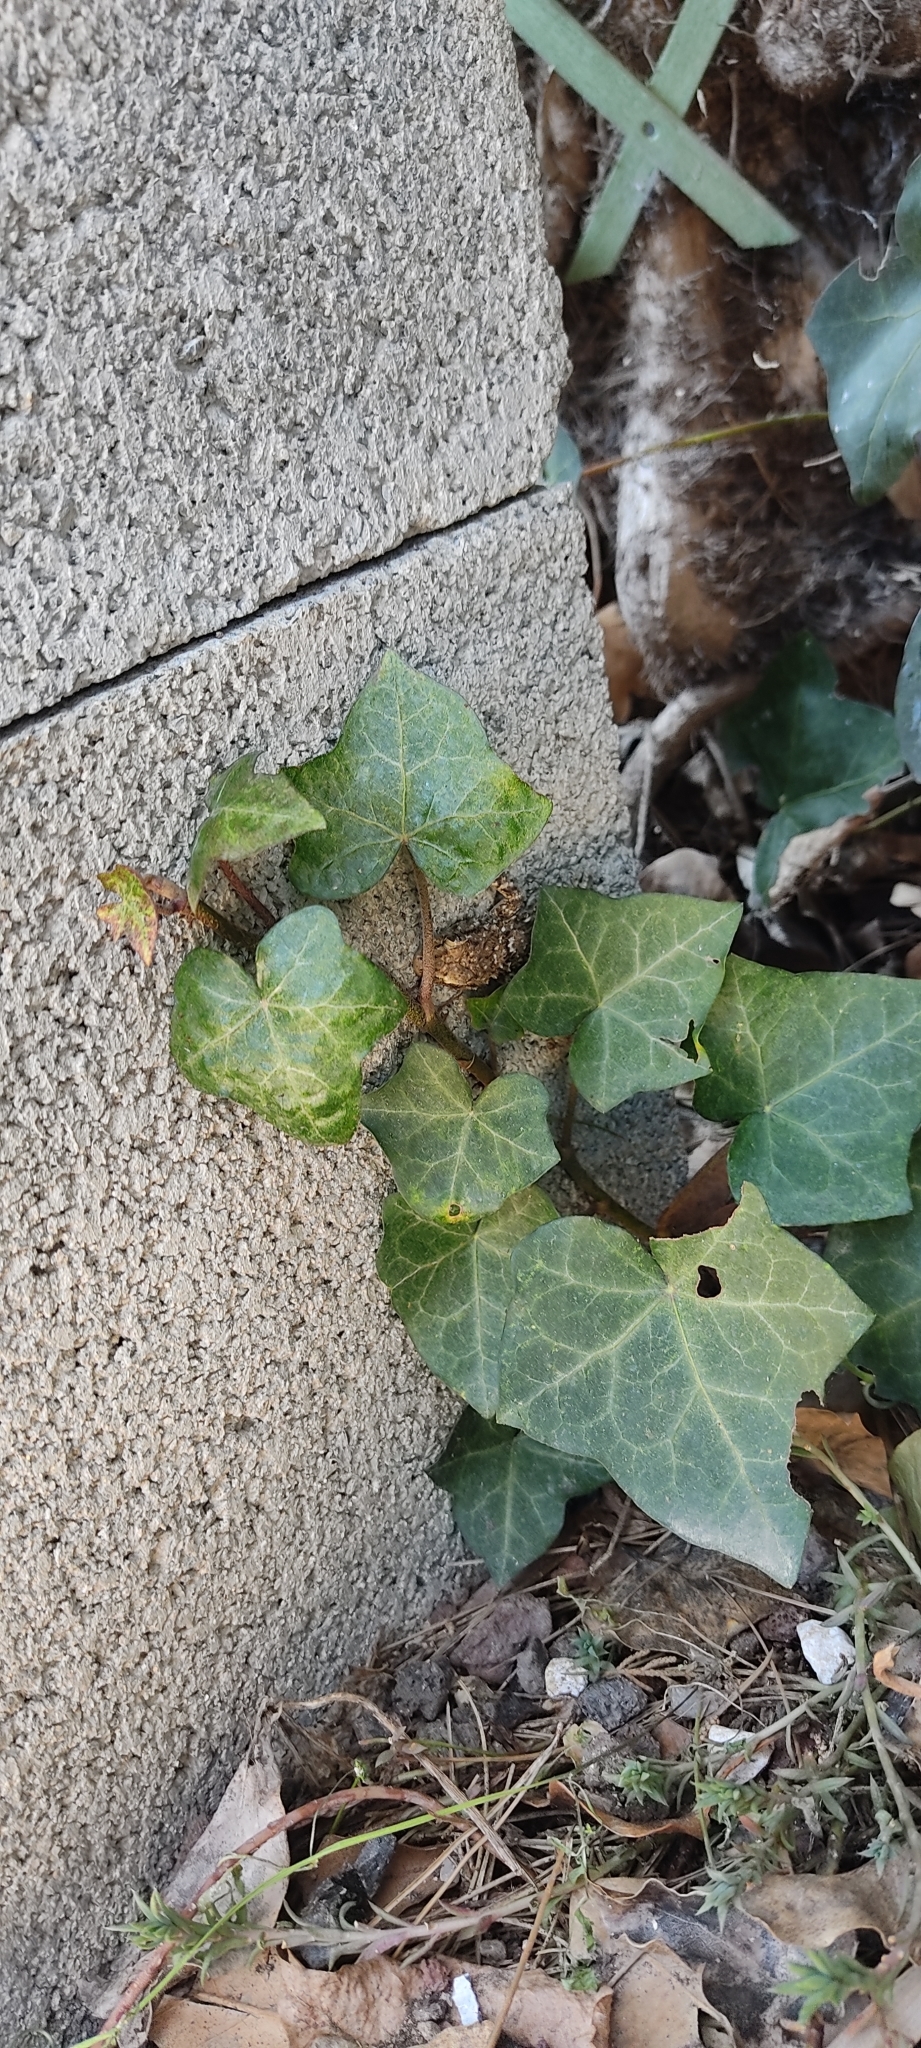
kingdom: Animalia
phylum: Chordata
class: Squamata
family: Phyllodactylidae
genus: Tarentola
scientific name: Tarentola mauritanica
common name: Moorish gecko
